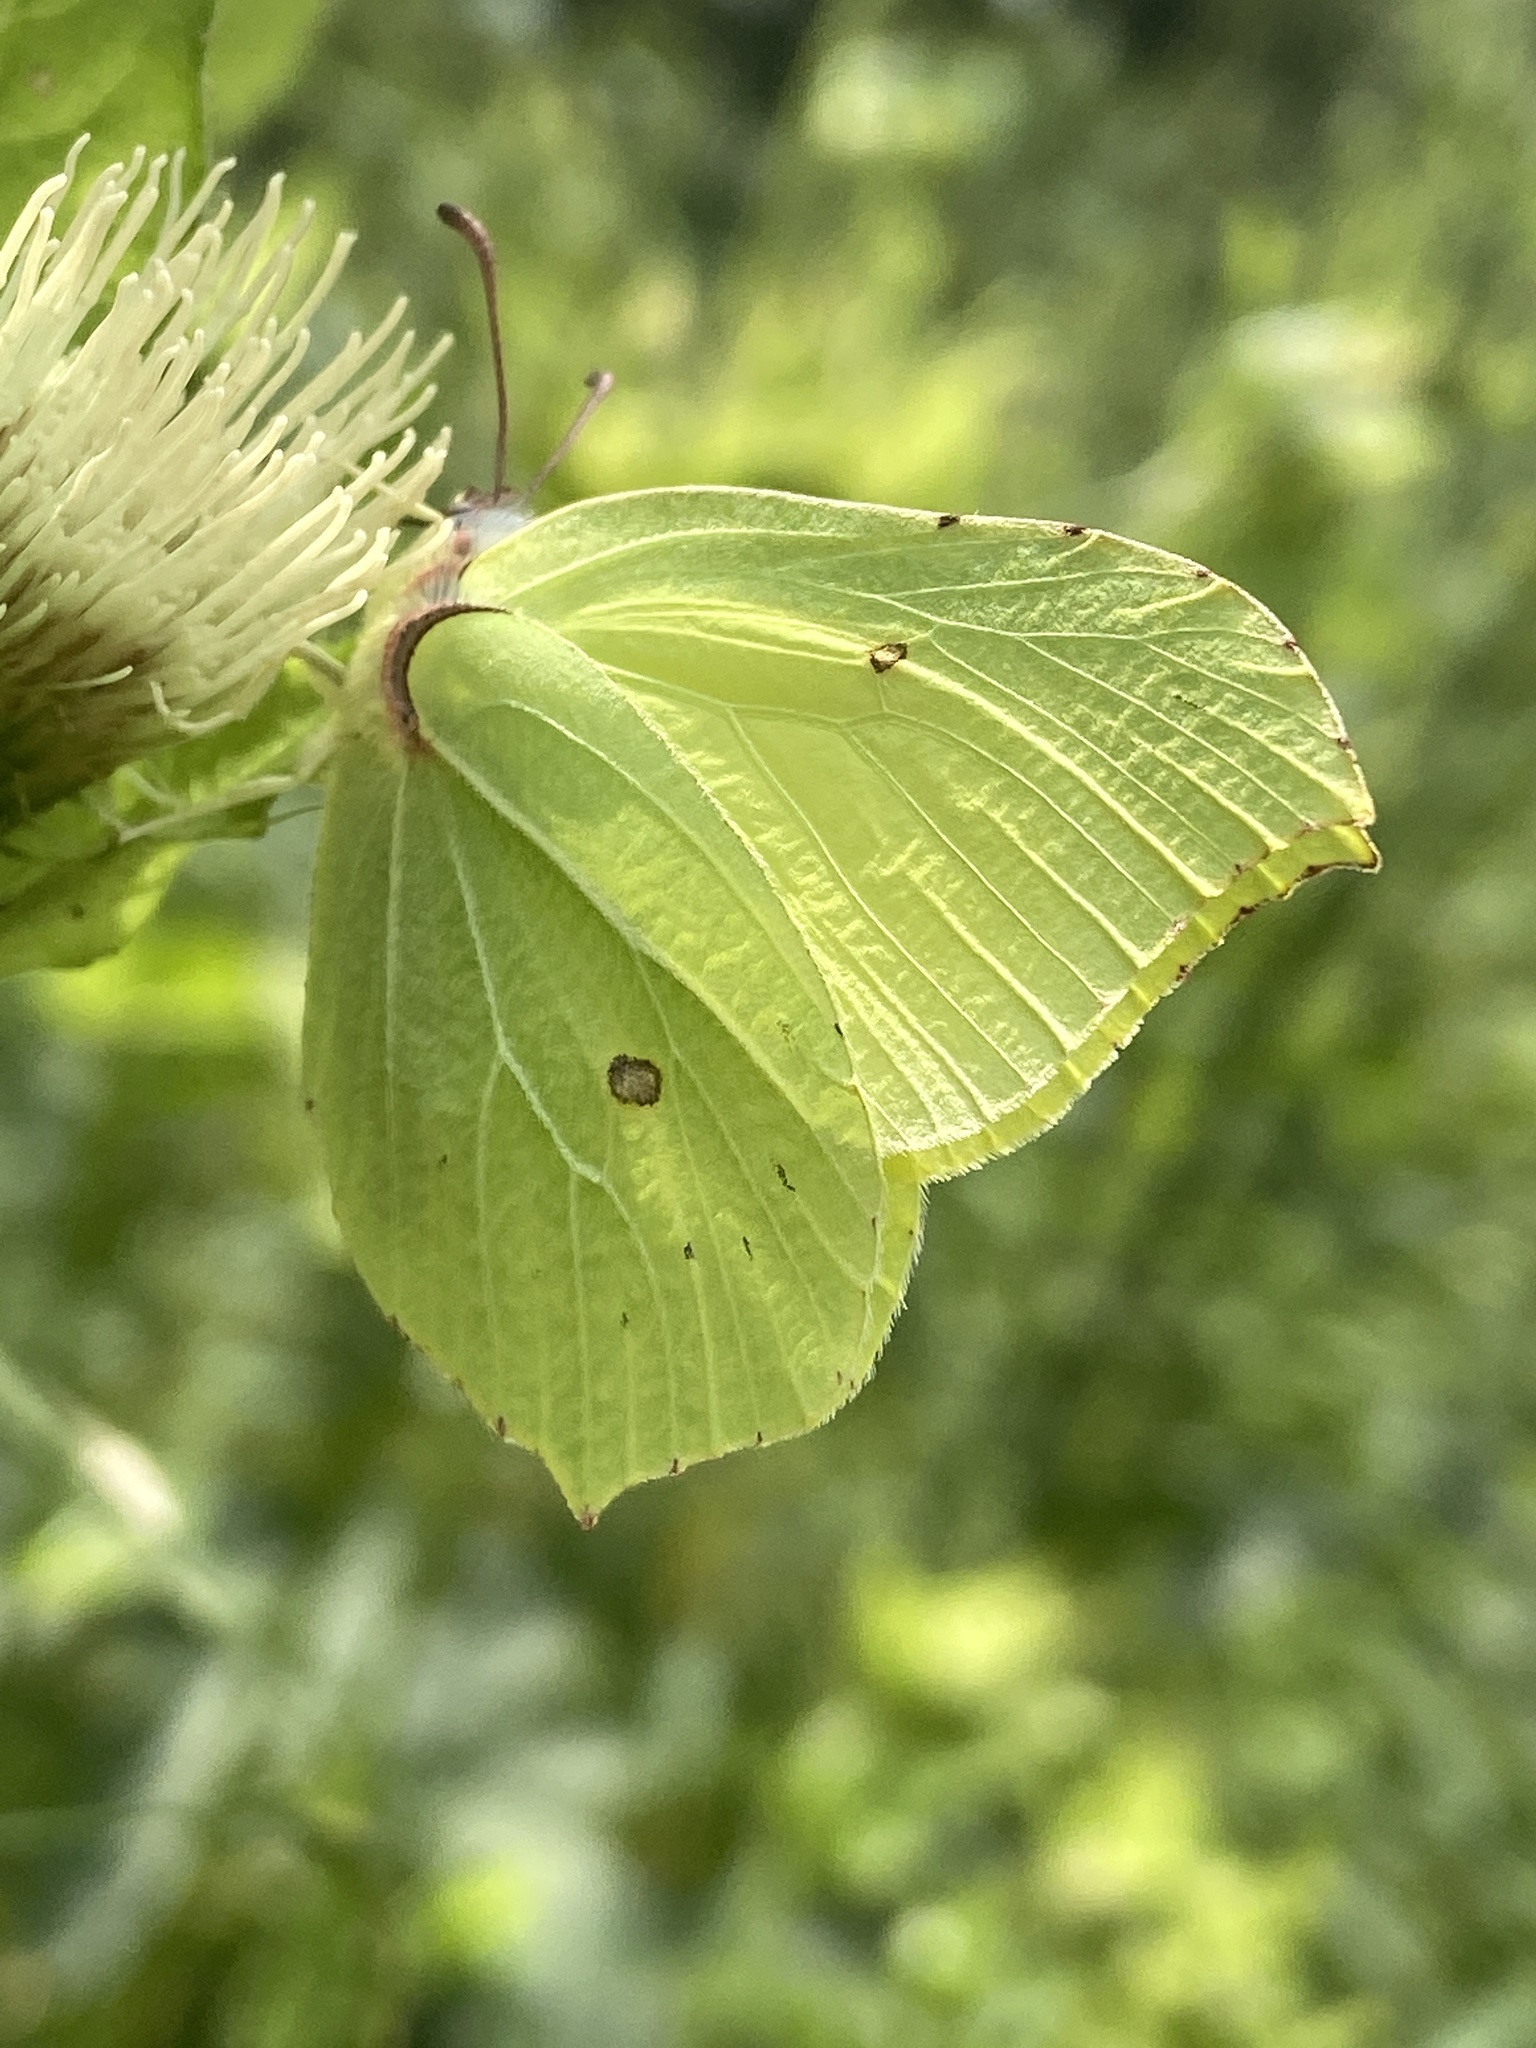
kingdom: Animalia
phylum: Arthropoda
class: Insecta
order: Lepidoptera
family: Pieridae
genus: Gonepteryx
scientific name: Gonepteryx rhamni
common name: Brimstone
